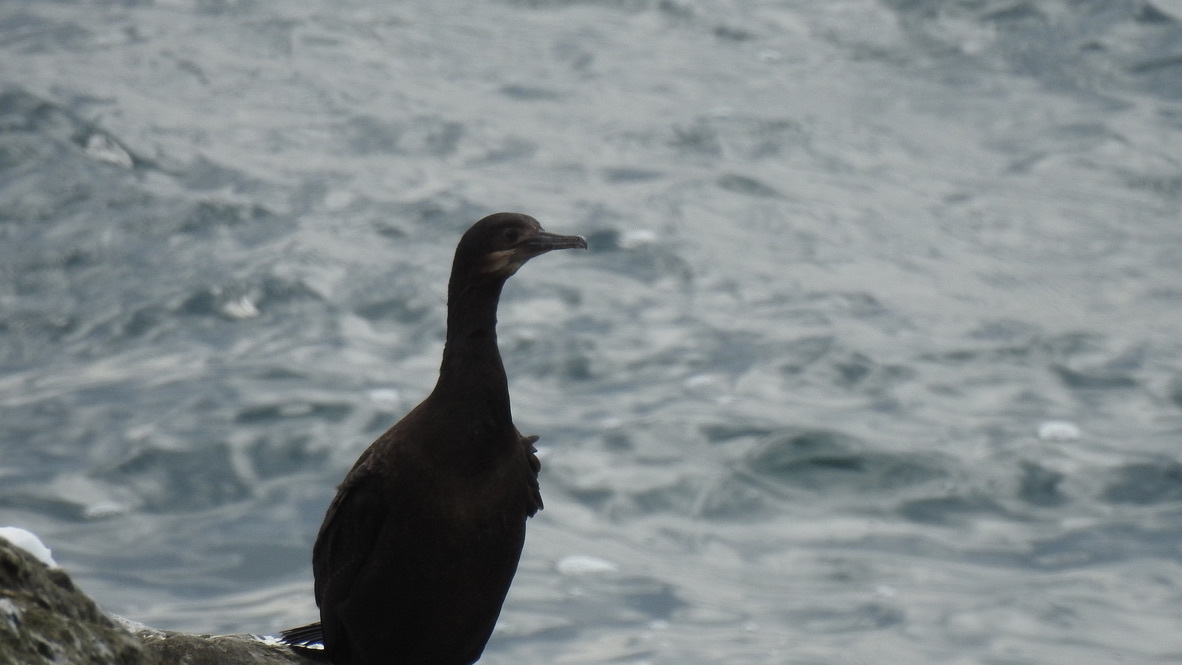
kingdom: Animalia
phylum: Chordata
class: Aves
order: Suliformes
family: Phalacrocoracidae
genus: Urile
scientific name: Urile penicillatus
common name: Brandt's cormorant
